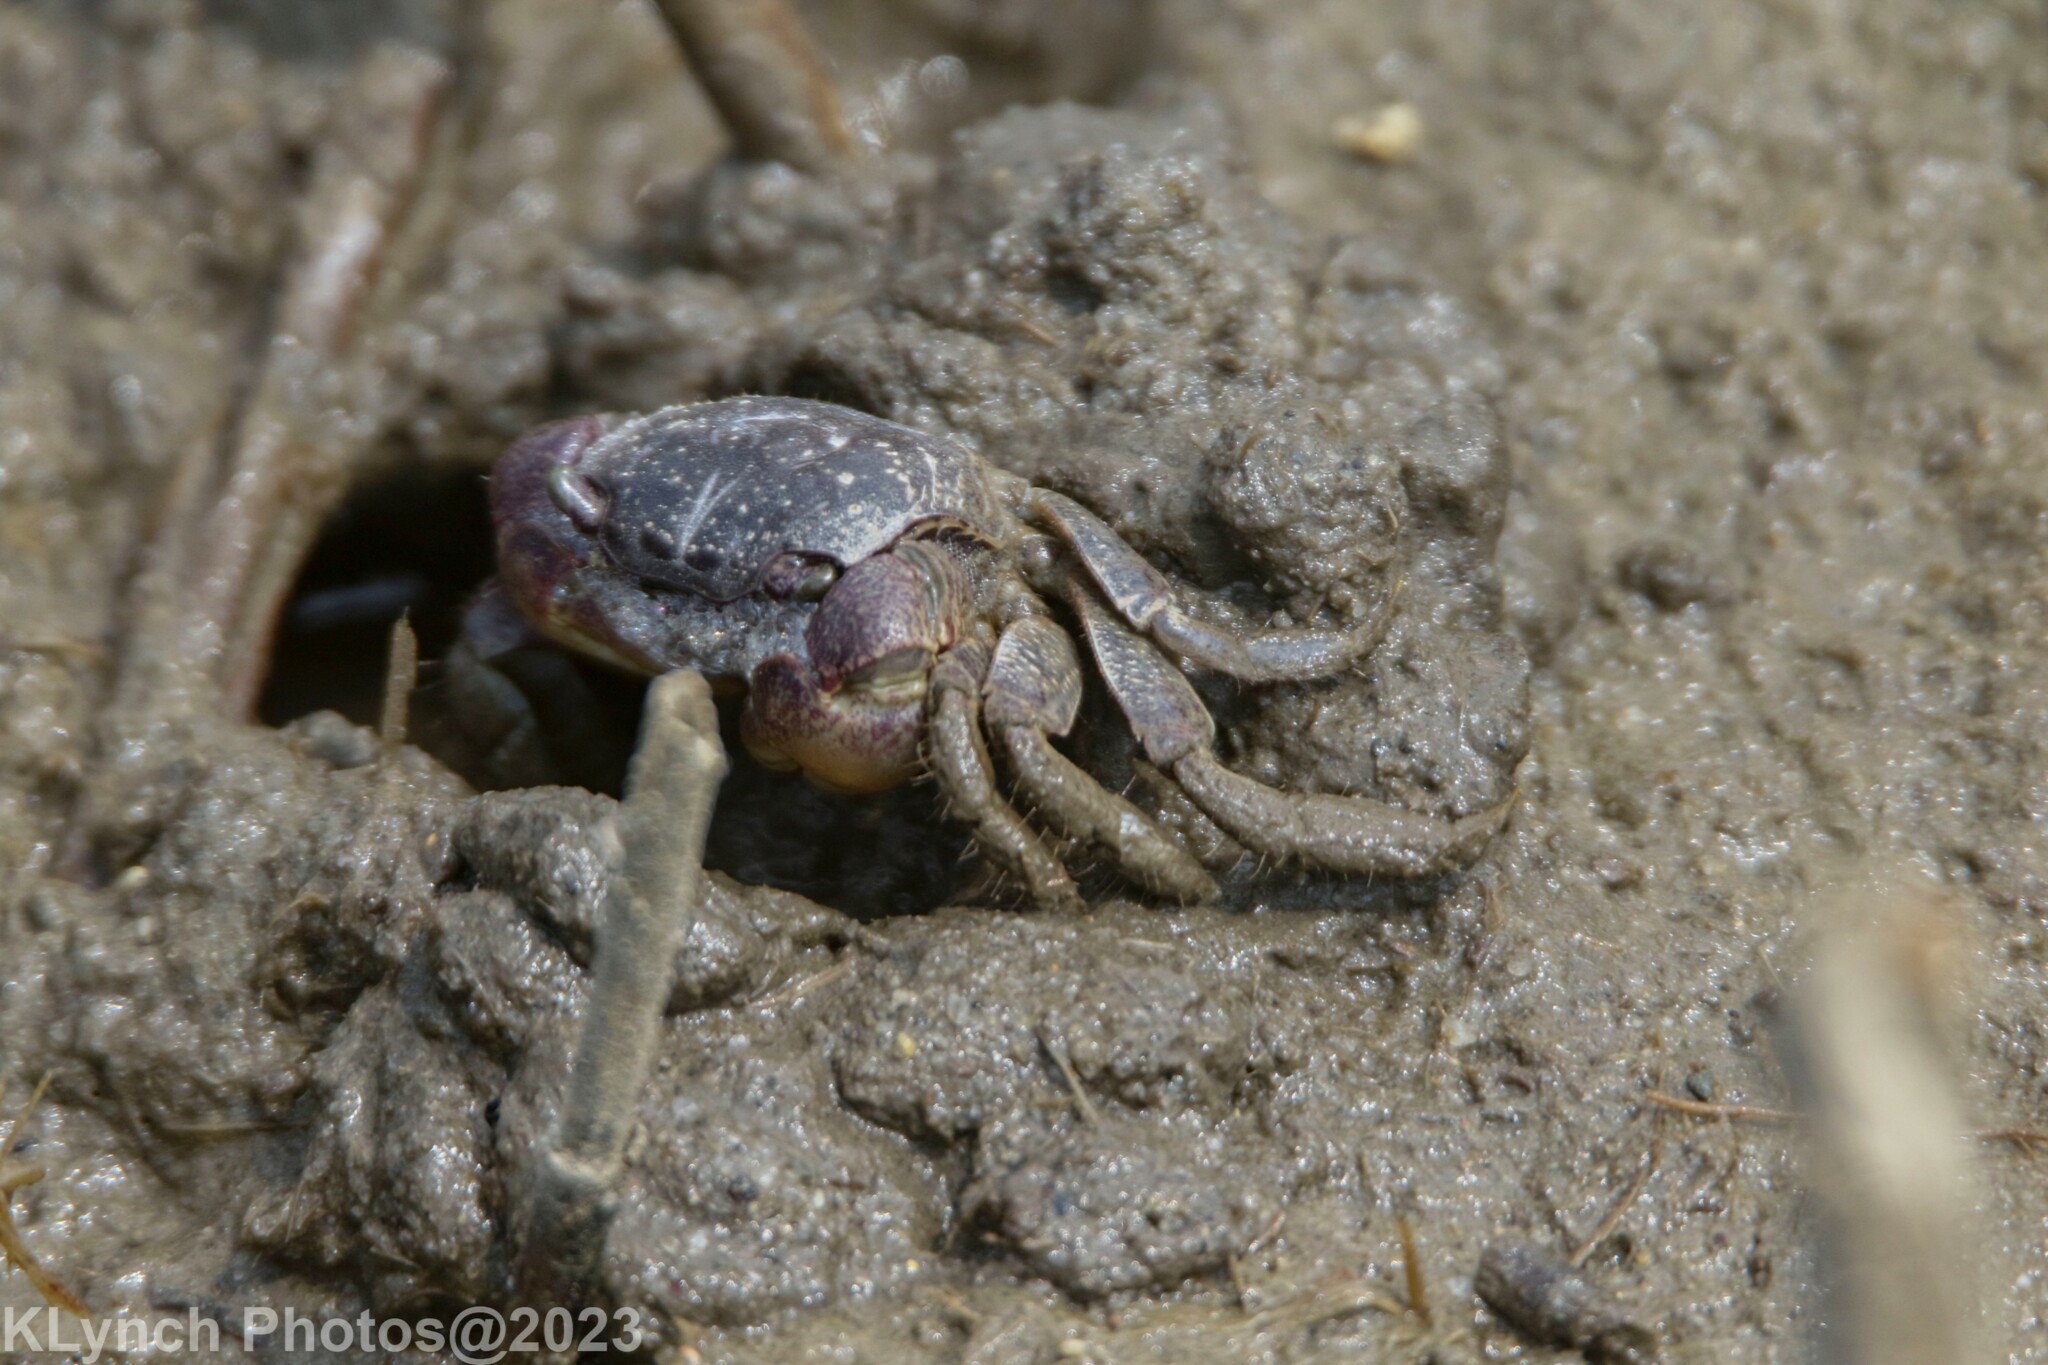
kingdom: Animalia
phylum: Arthropoda
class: Malacostraca
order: Decapoda
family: Sesarmidae
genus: Sesarma
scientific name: Sesarma reticulatum
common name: Heavy marsh crab
